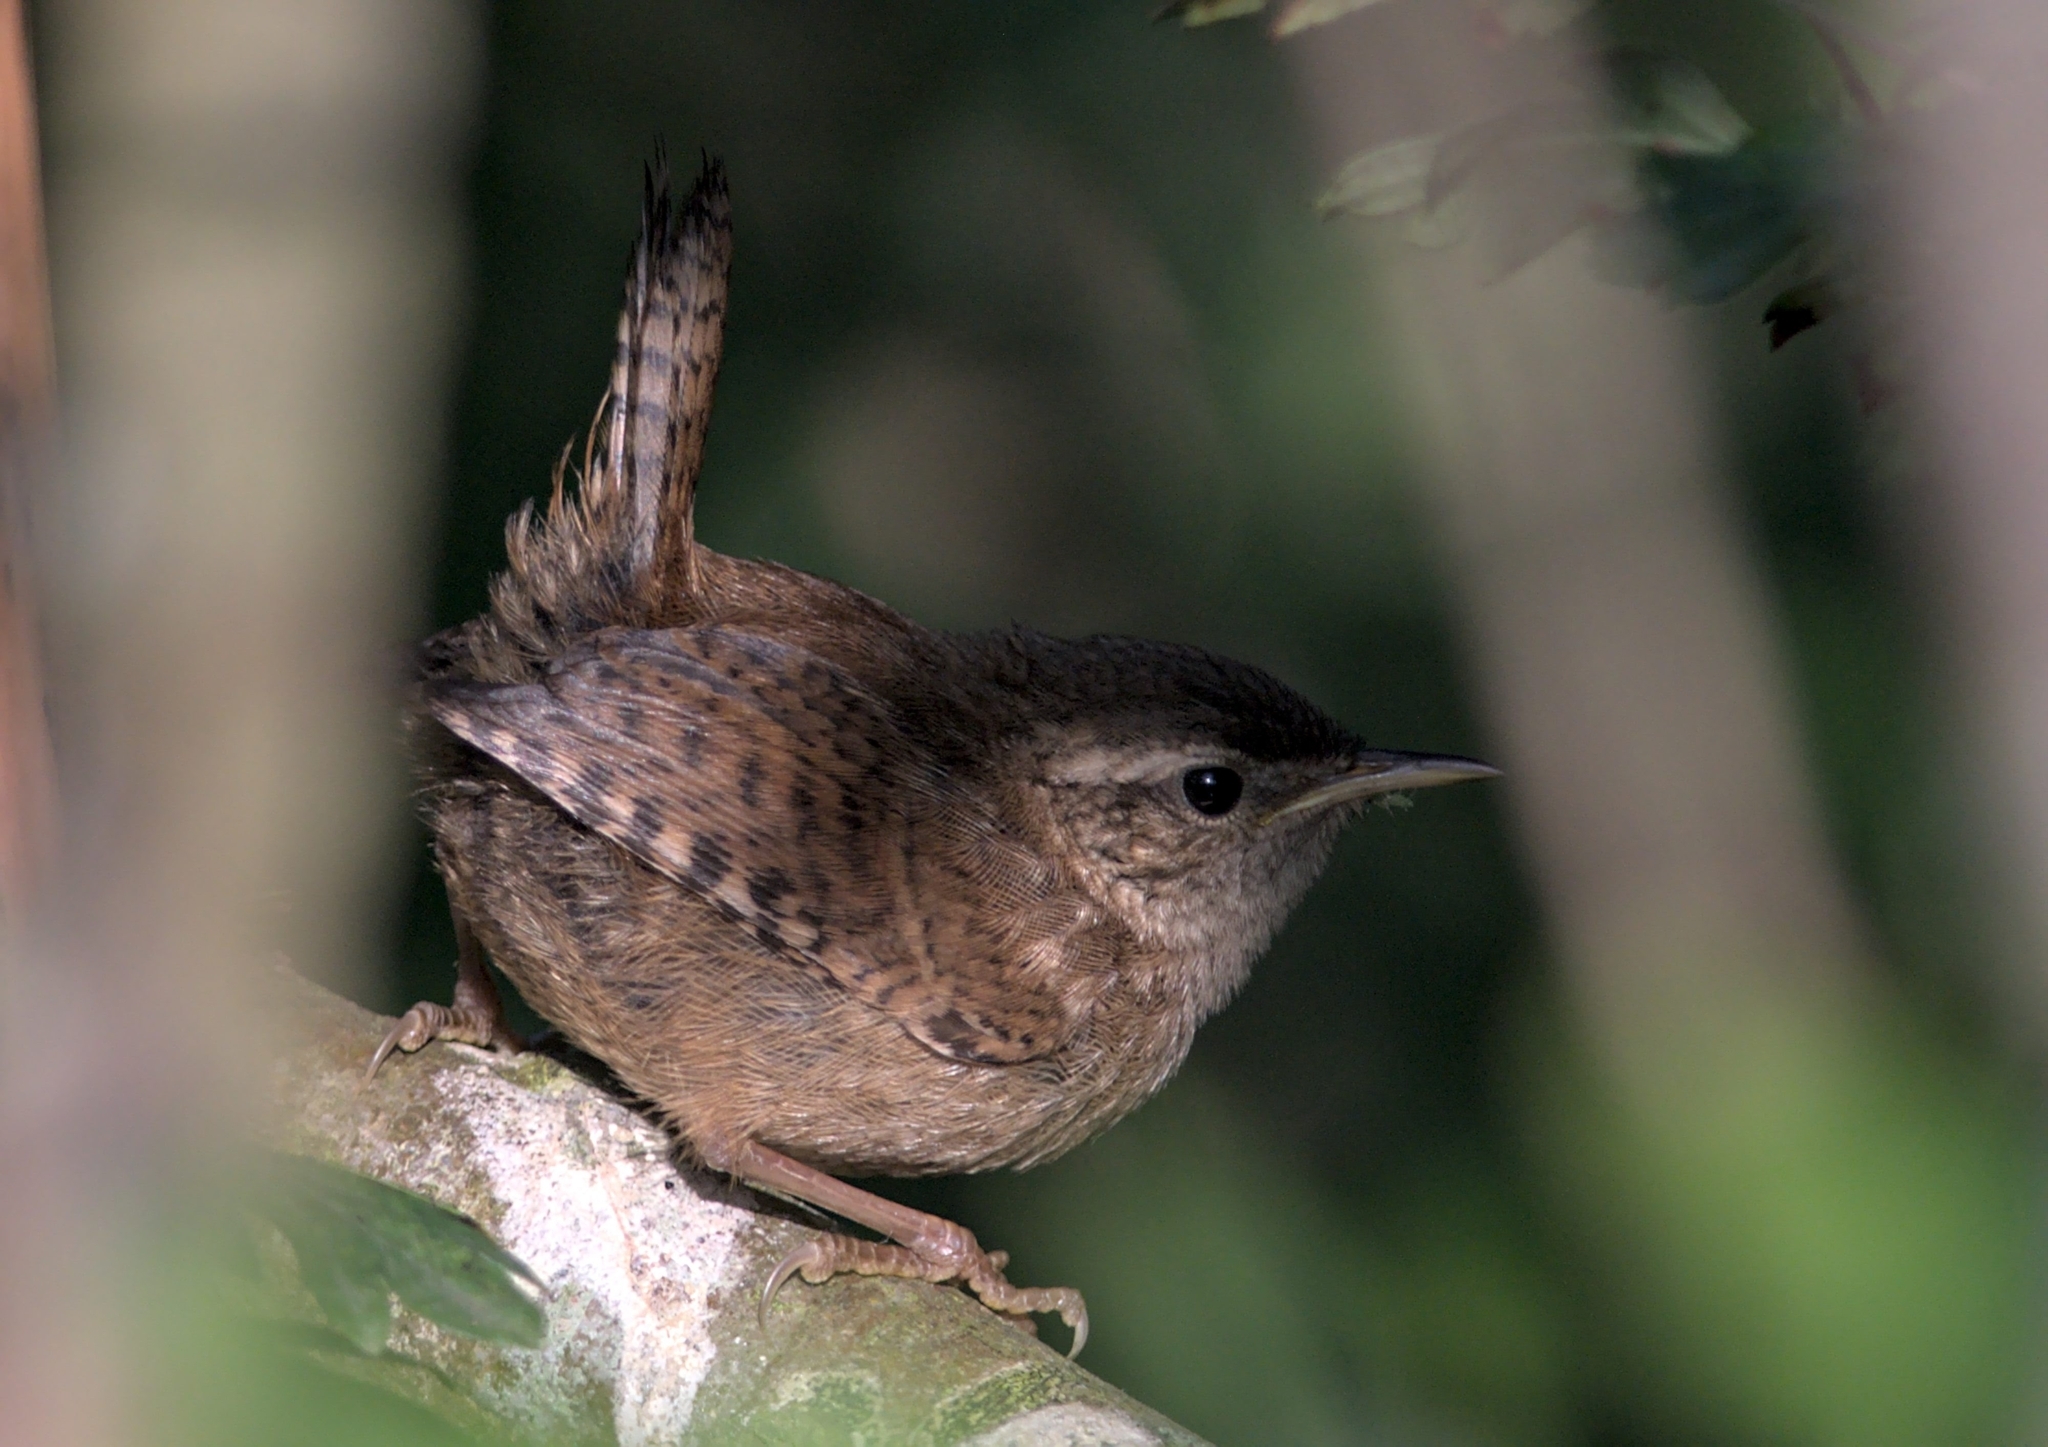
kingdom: Animalia
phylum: Chordata
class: Aves
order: Passeriformes
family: Troglodytidae
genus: Troglodytes
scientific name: Troglodytes troglodytes
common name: Eurasian wren
